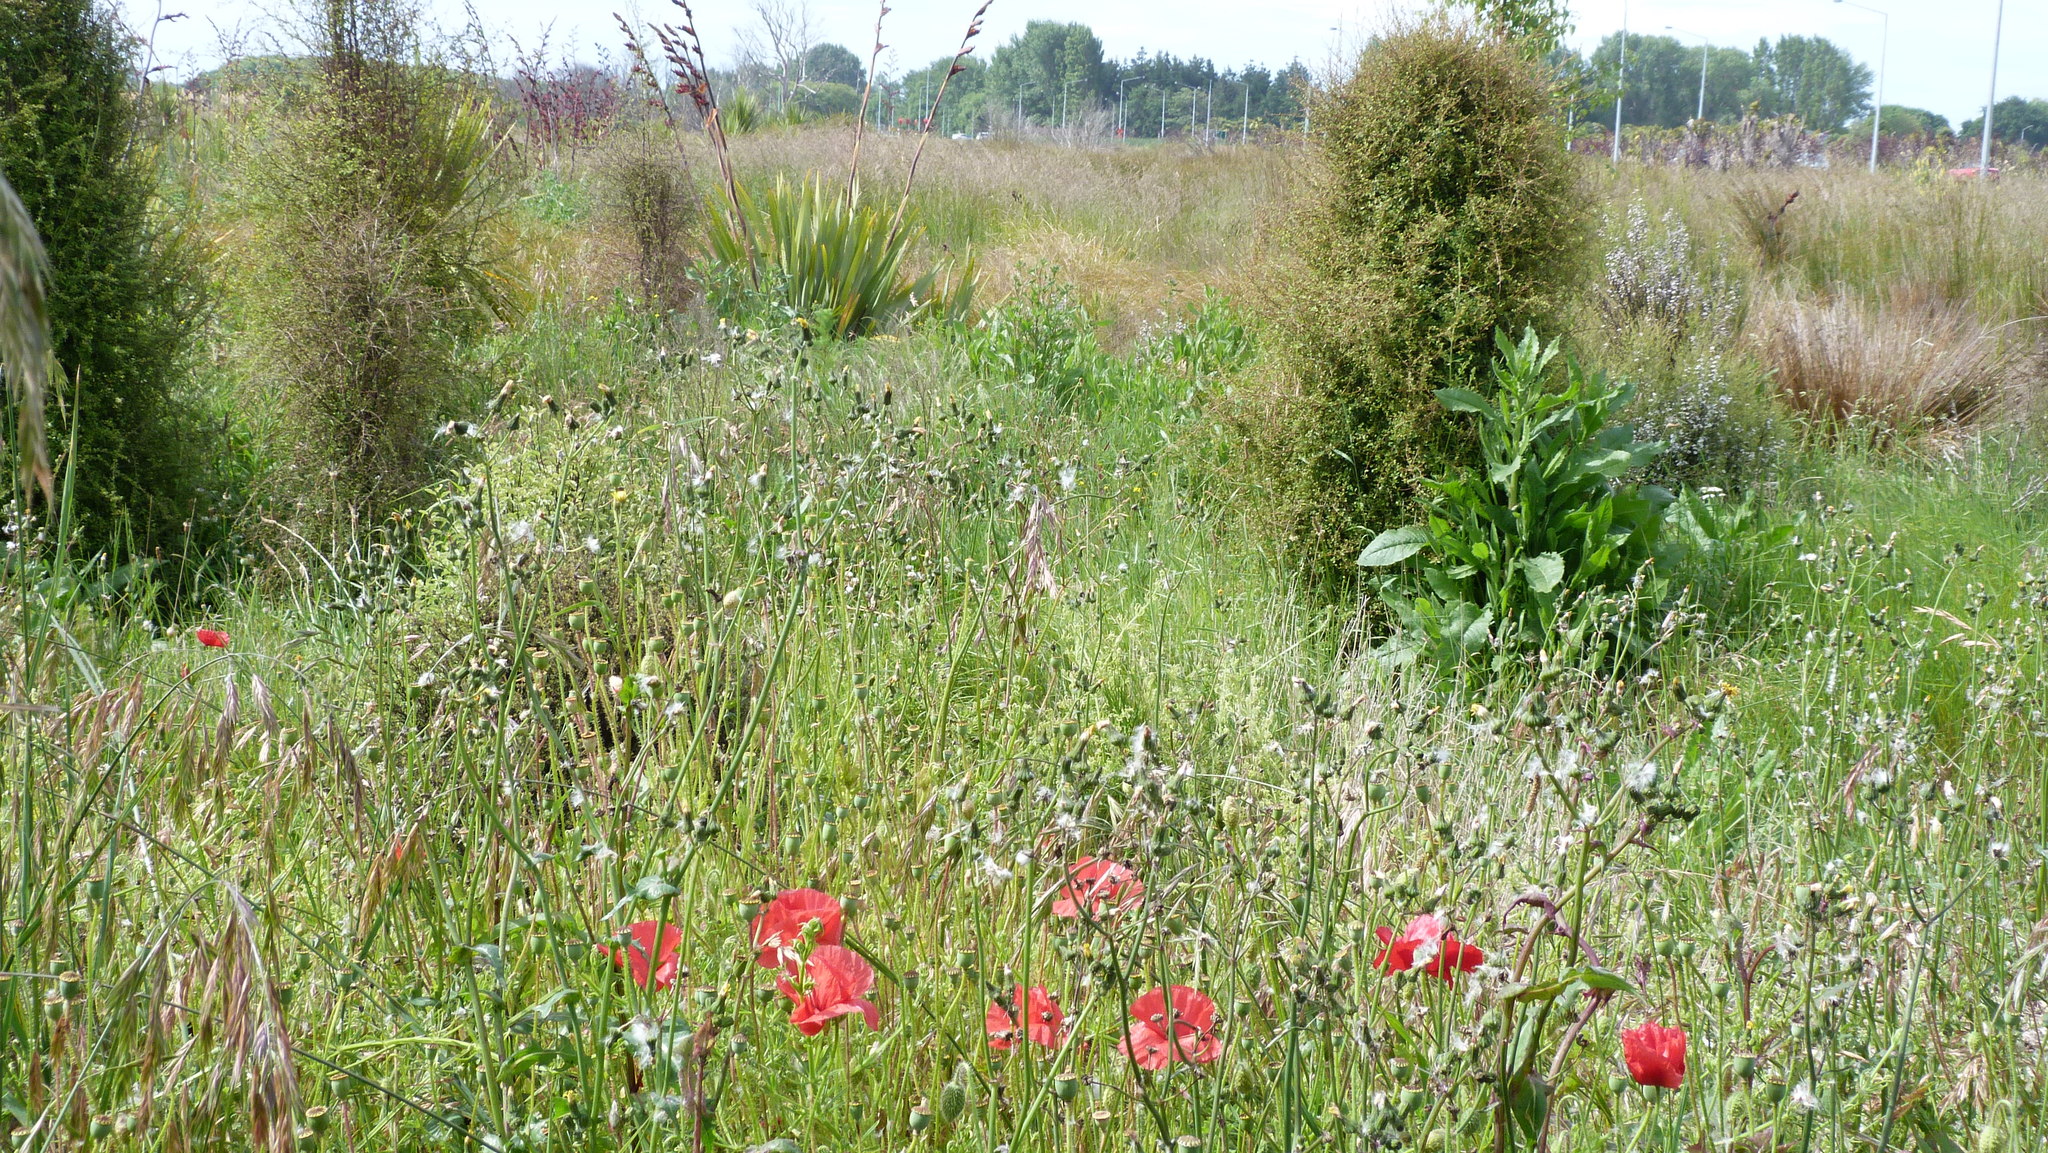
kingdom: Plantae
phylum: Tracheophyta
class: Magnoliopsida
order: Ranunculales
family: Papaveraceae
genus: Papaver
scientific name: Papaver rhoeas
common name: Corn poppy
